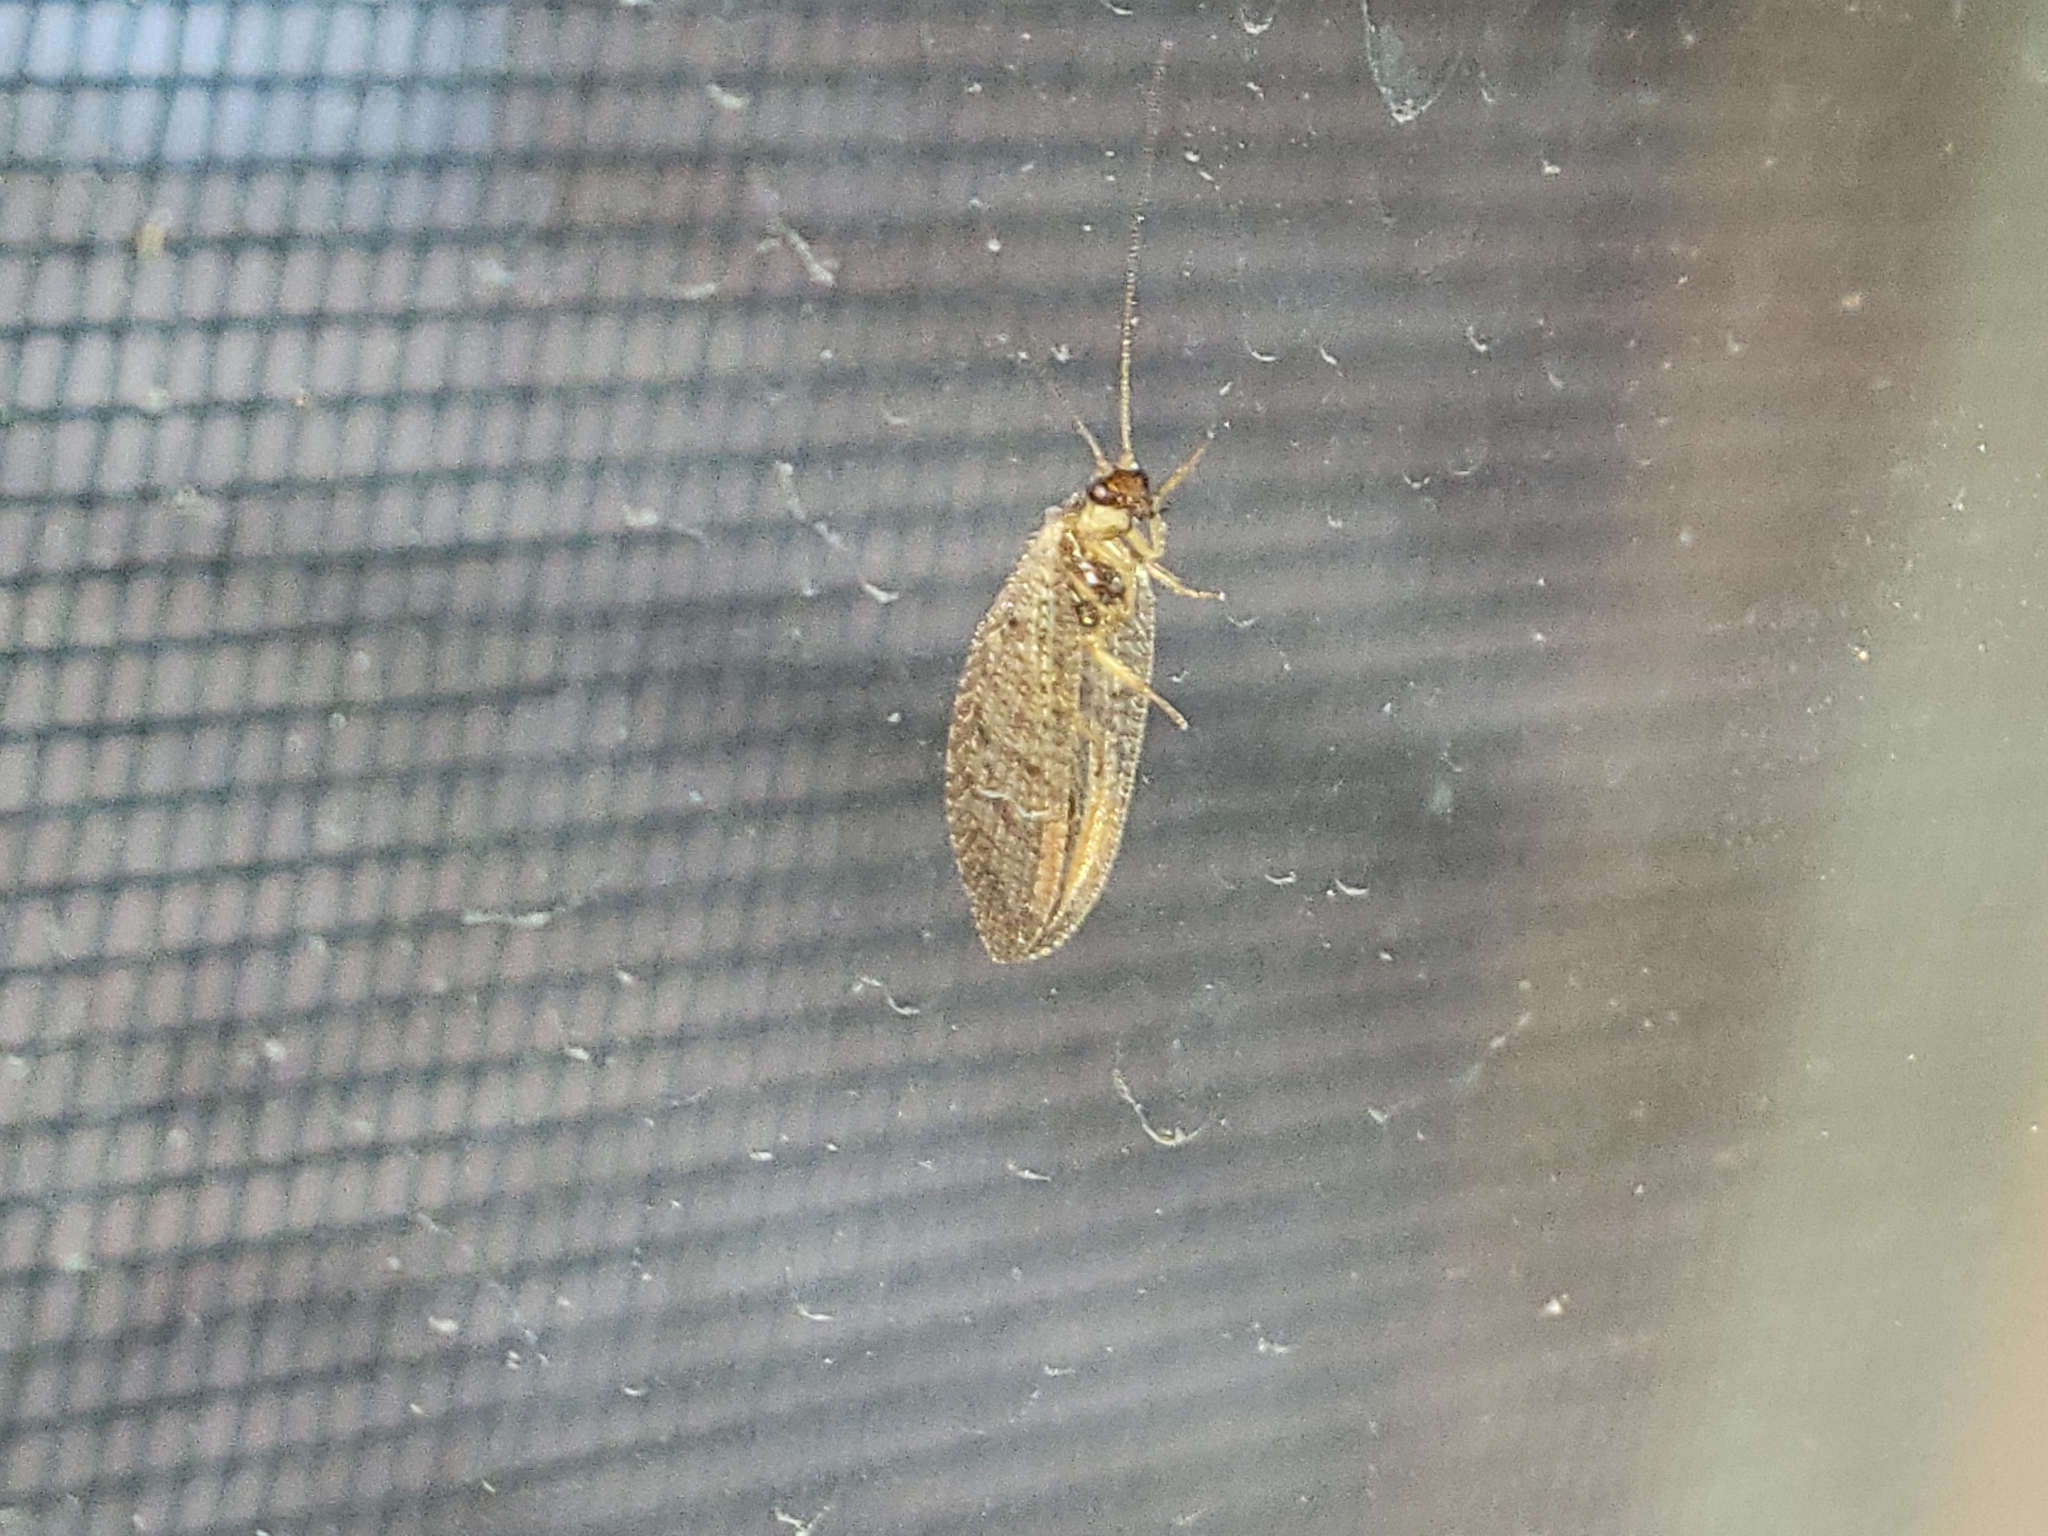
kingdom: Animalia
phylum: Arthropoda
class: Insecta
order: Neuroptera
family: Hemerobiidae
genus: Hemerobius
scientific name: Hemerobius stigma
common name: Brown pine lacewing
